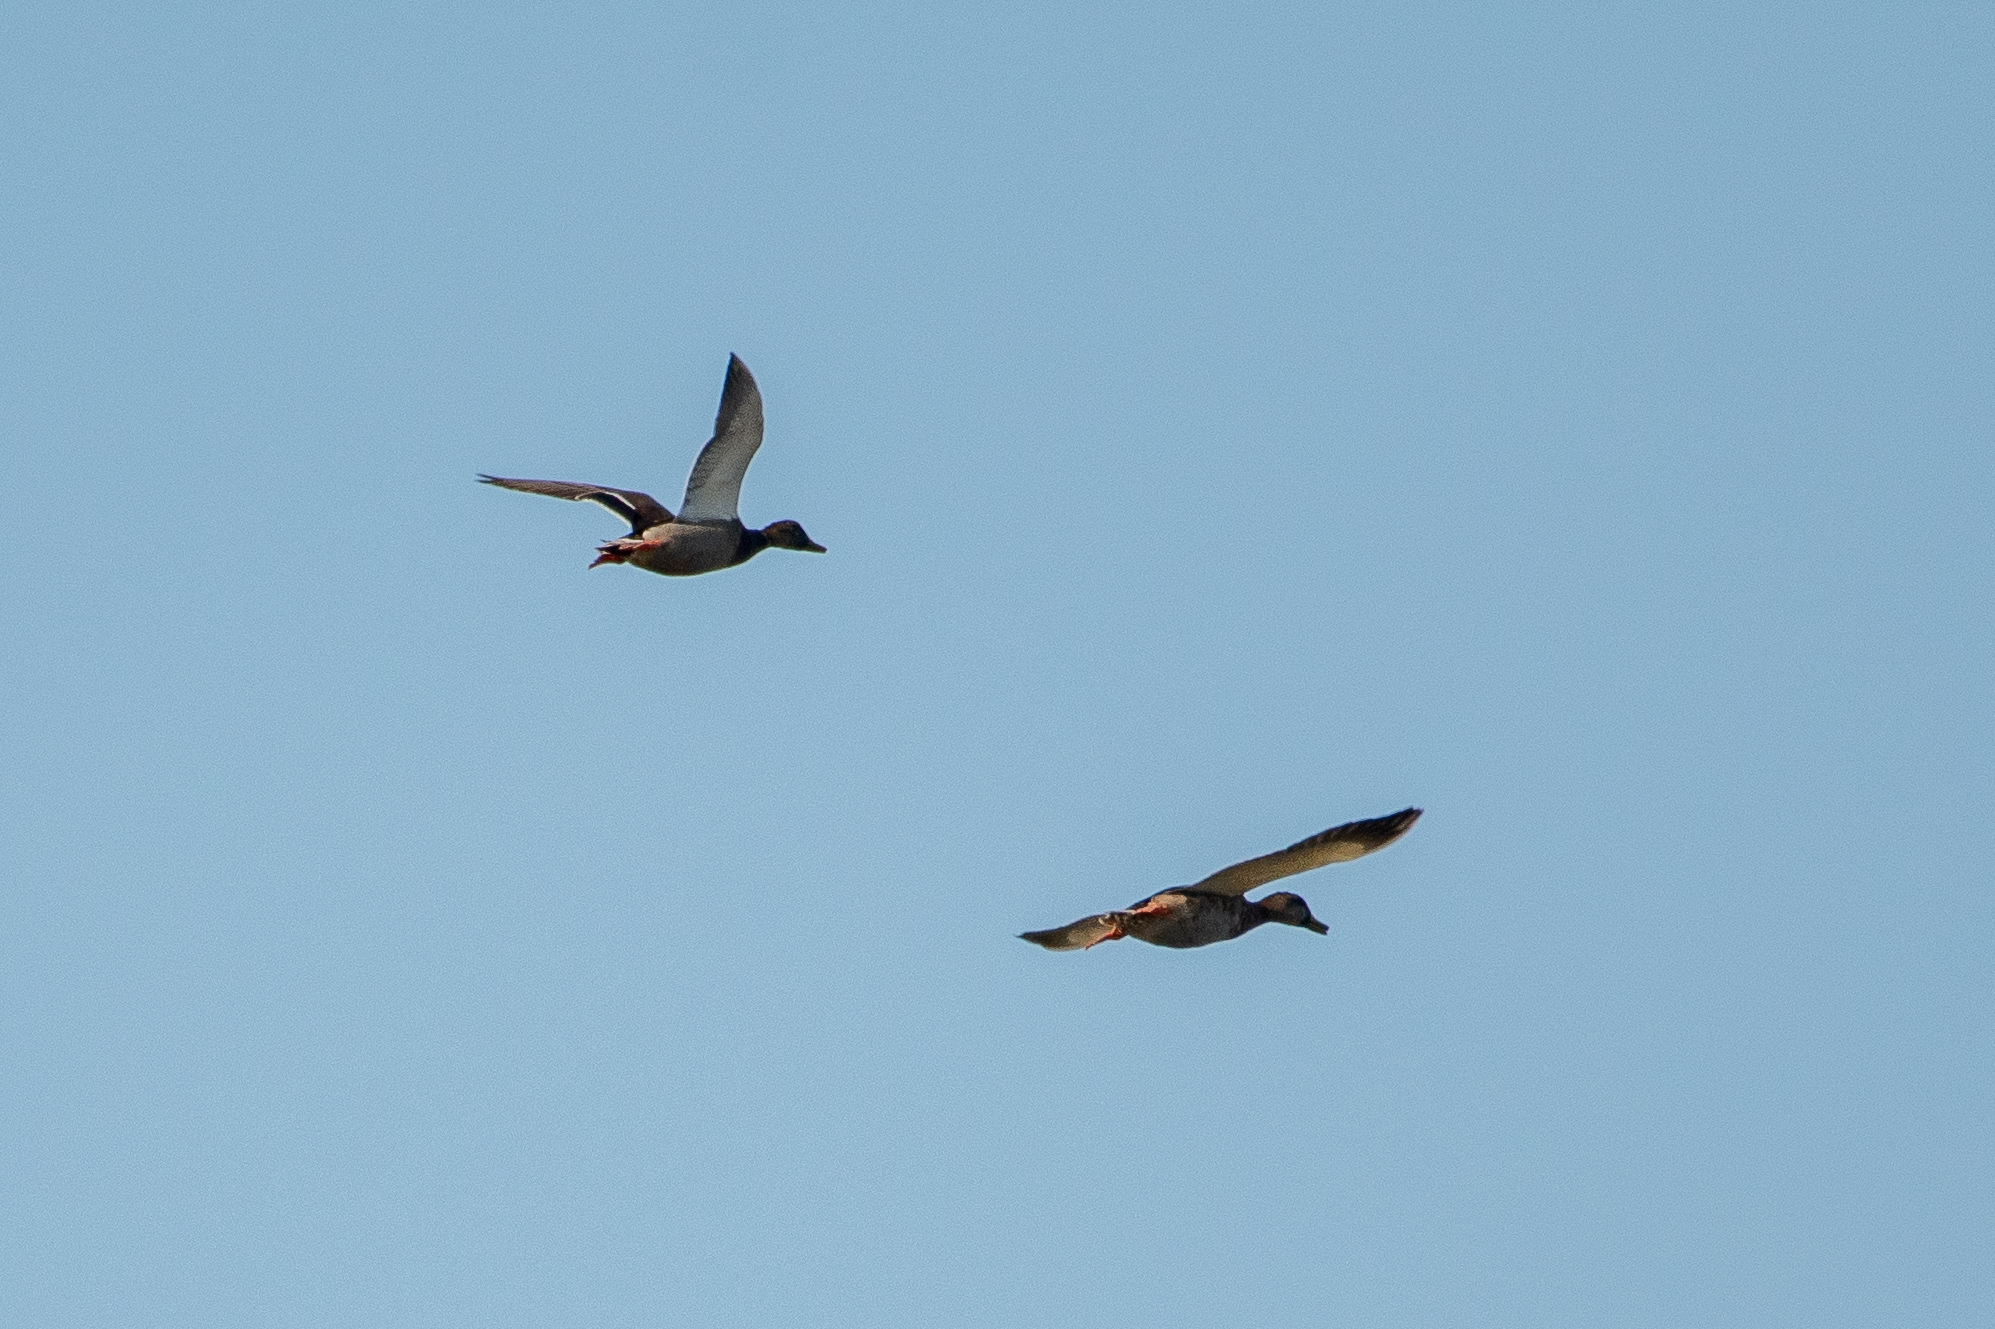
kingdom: Animalia
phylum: Chordata
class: Aves
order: Anseriformes
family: Anatidae
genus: Anas
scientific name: Anas platyrhynchos
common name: Mallard
